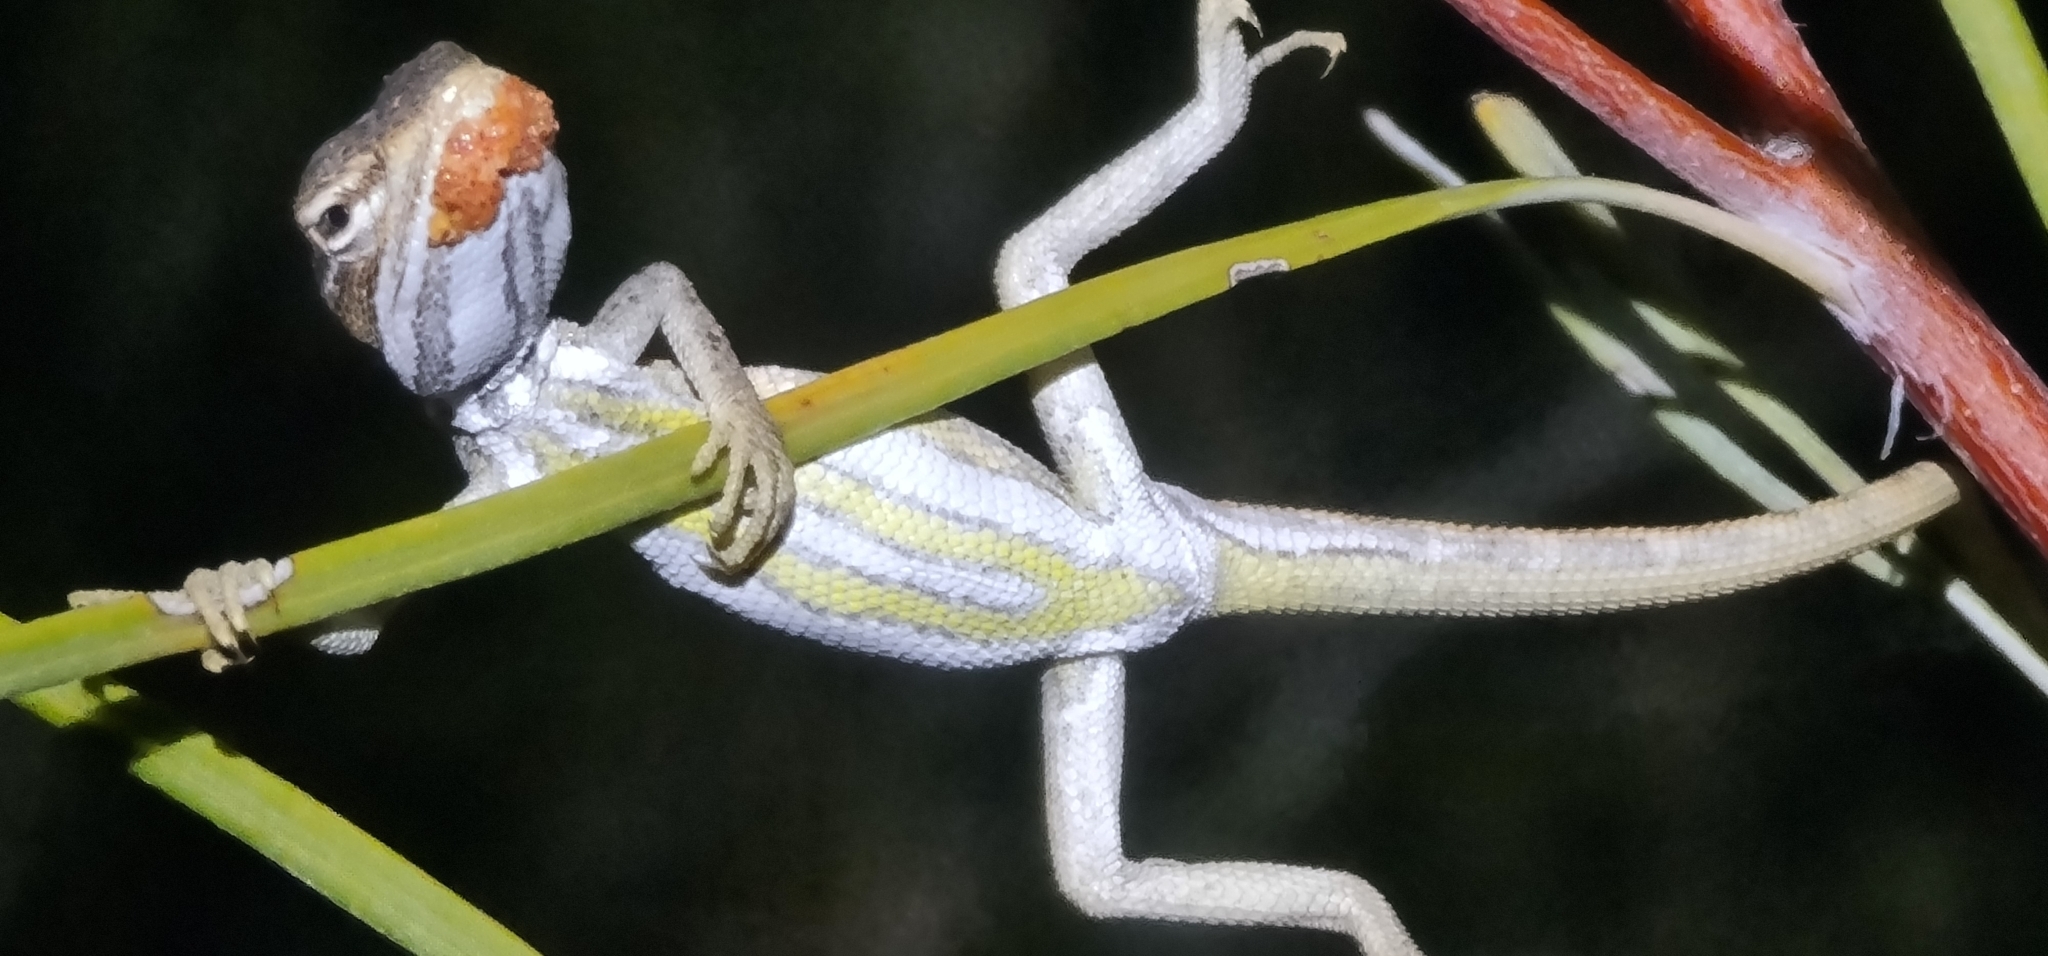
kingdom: Animalia
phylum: Chordata
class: Squamata
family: Agamidae
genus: Diporiphora
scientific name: Diporiphora winneckei
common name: Canegrass two-line dragon
